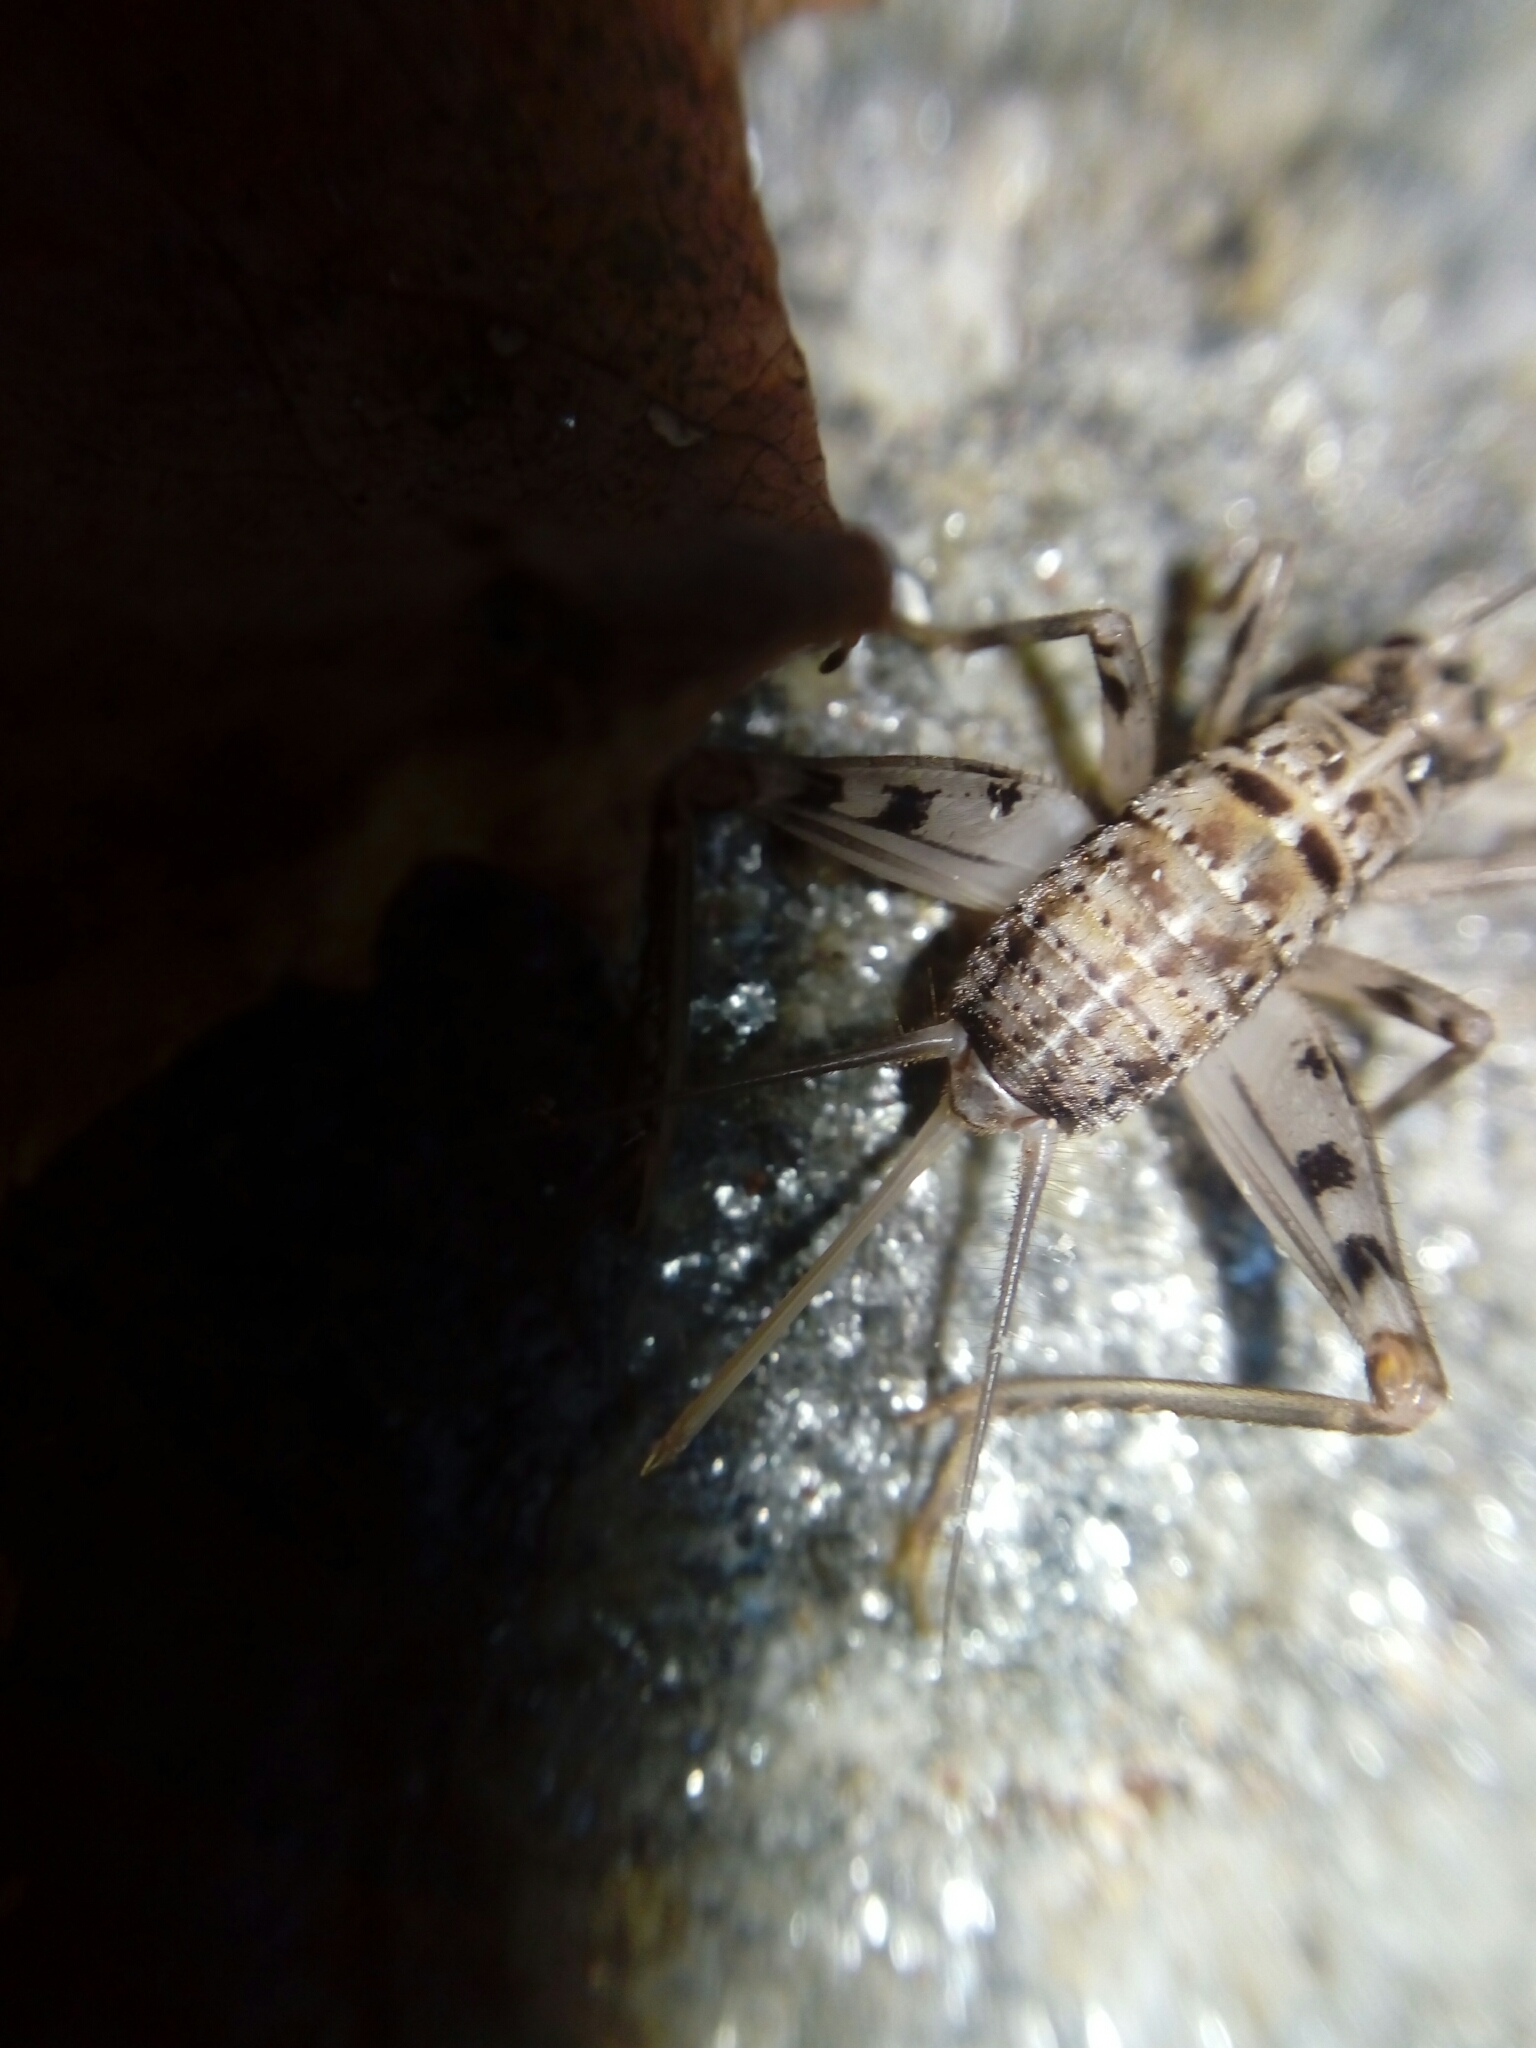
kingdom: Animalia
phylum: Arthropoda
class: Insecta
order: Orthoptera
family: Gryllidae
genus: Gryllomorpha
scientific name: Gryllomorpha dalmatina
